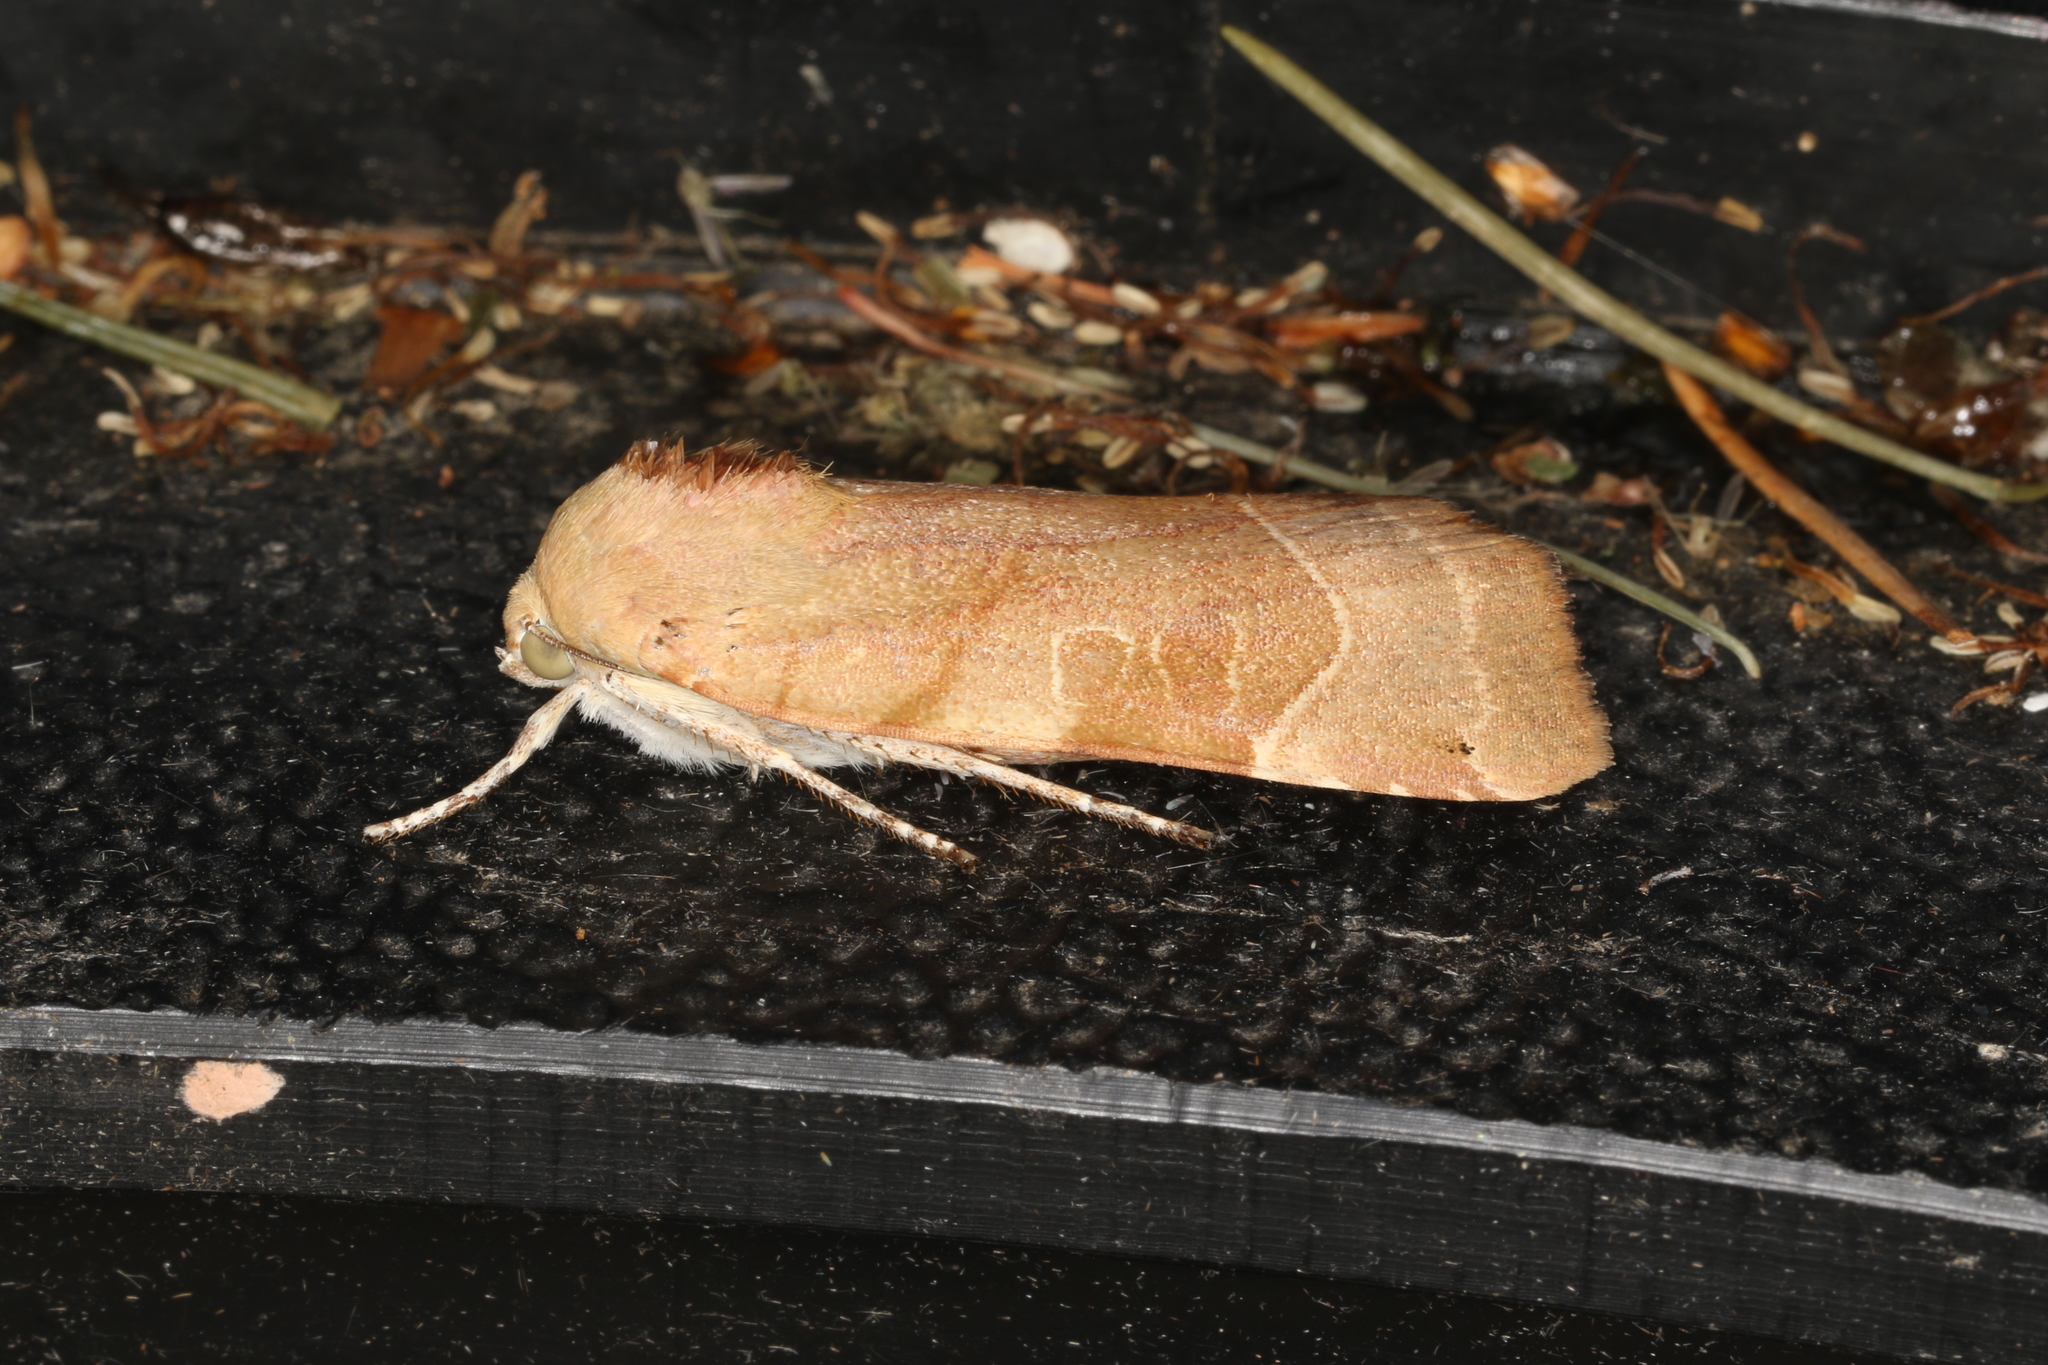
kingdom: Animalia
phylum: Arthropoda
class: Insecta
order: Lepidoptera
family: Noctuidae
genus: Noctua
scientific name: Noctua fimbriata
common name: Broad-bordered yellow underwing
